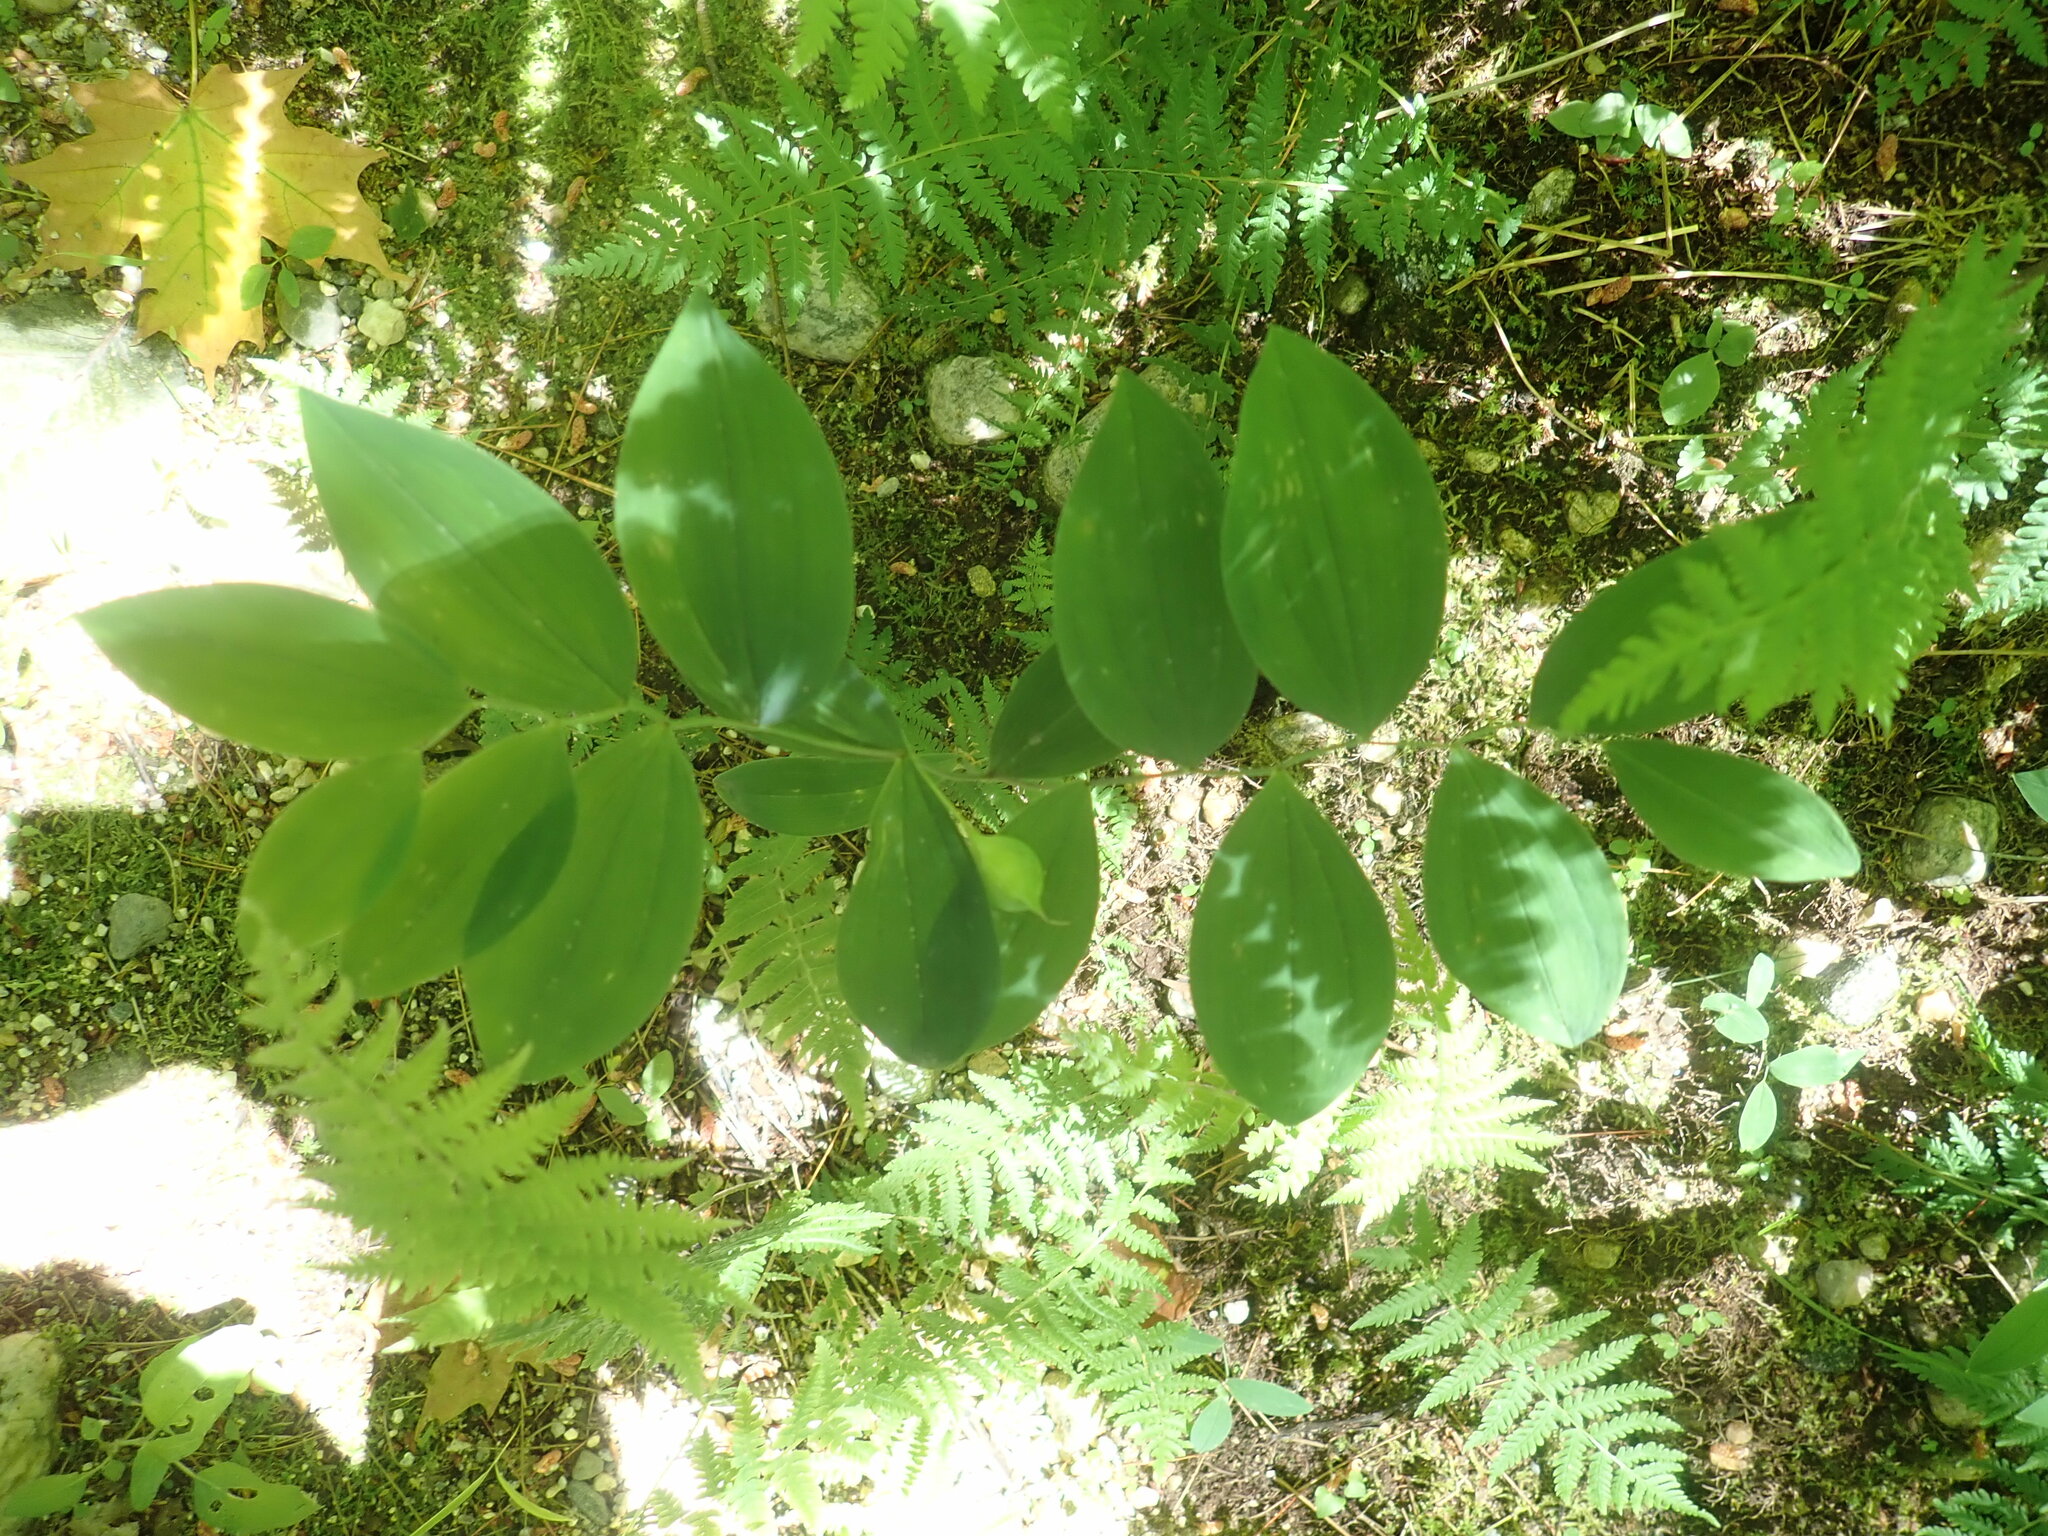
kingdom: Plantae
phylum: Tracheophyta
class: Liliopsida
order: Liliales
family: Colchicaceae
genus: Uvularia
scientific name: Uvularia sessilifolia
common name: Straw-lily
